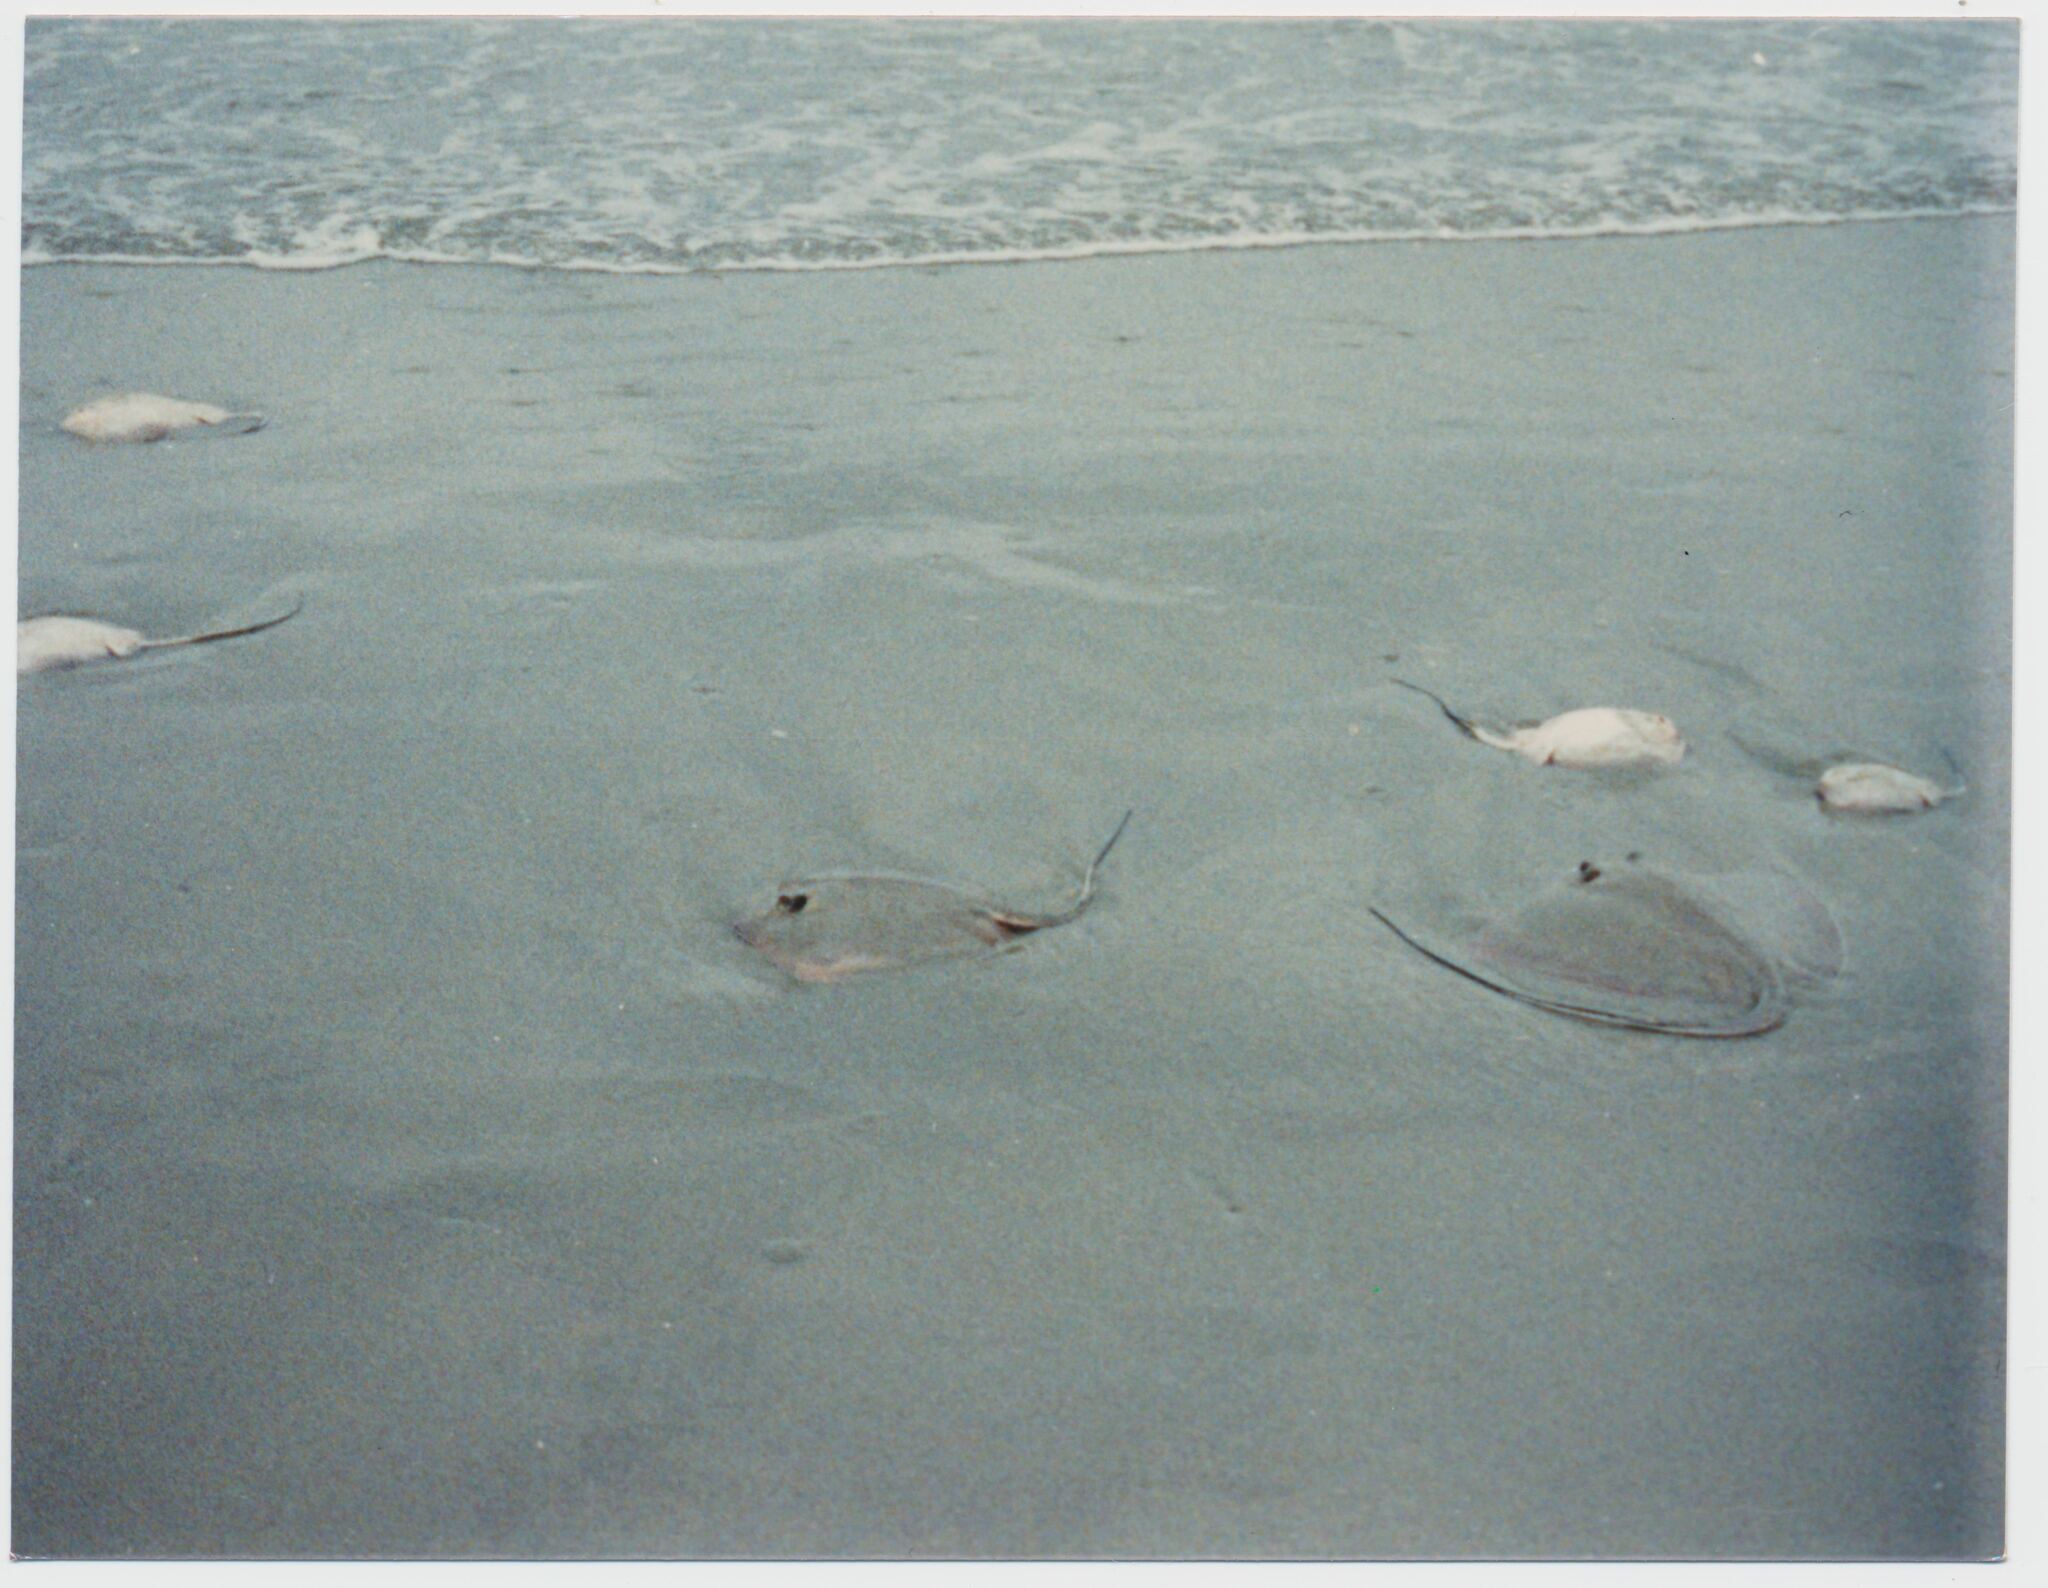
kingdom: Animalia
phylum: Chordata
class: Elasmobranchii
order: Myliobatiformes
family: Dasyatidae
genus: Hypanus
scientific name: Hypanus
